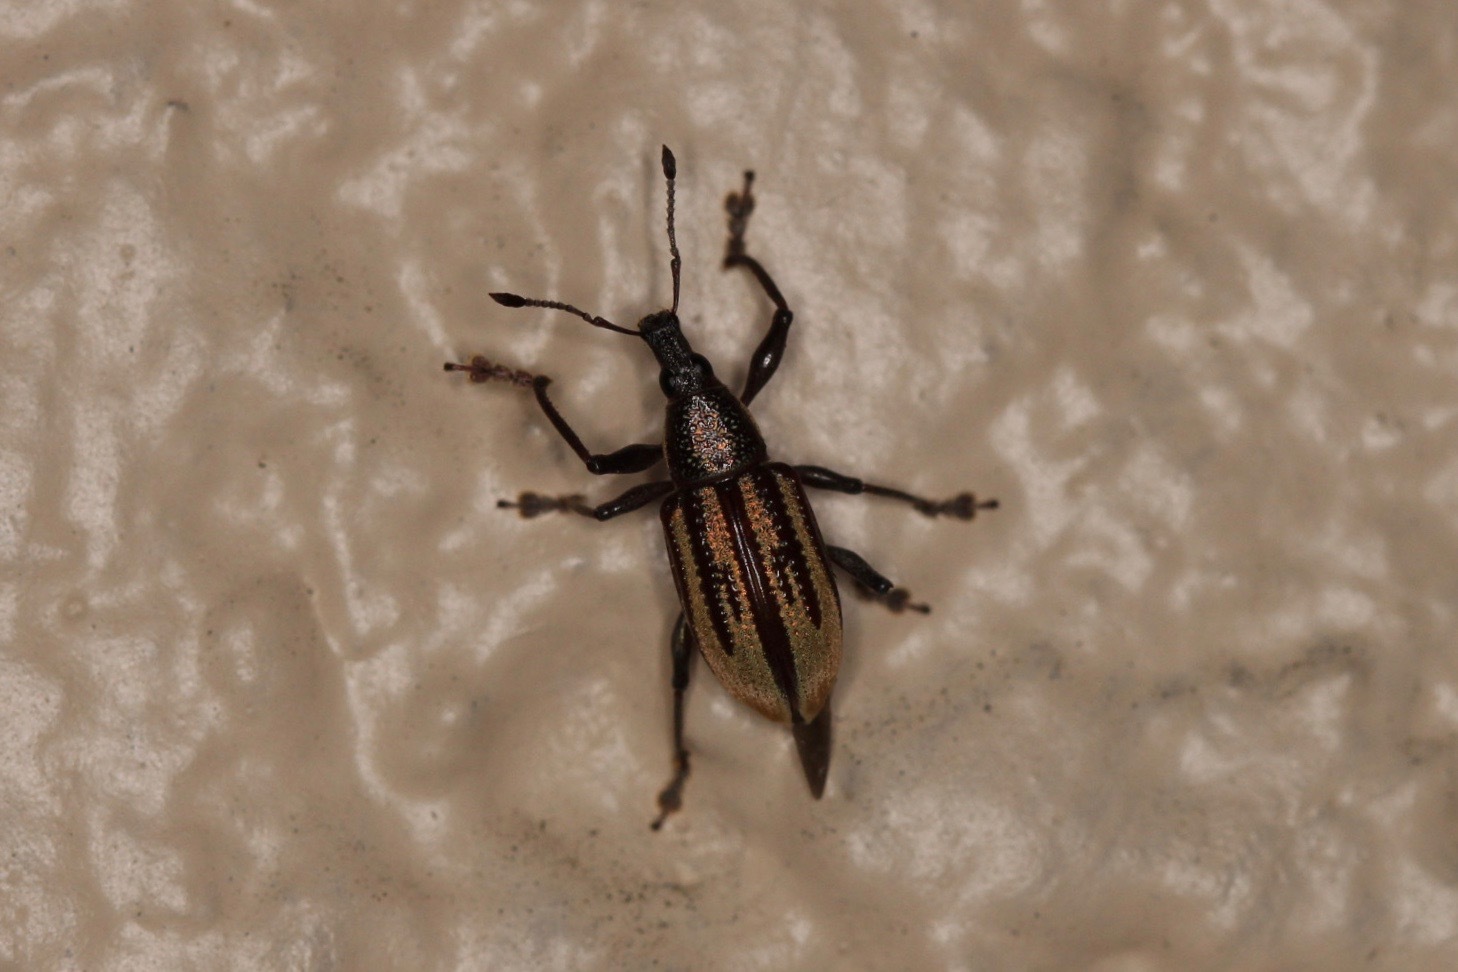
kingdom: Animalia
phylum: Arthropoda
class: Insecta
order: Coleoptera
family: Curculionidae
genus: Diaprepes
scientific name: Diaprepes abbreviatus
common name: Root weevil
